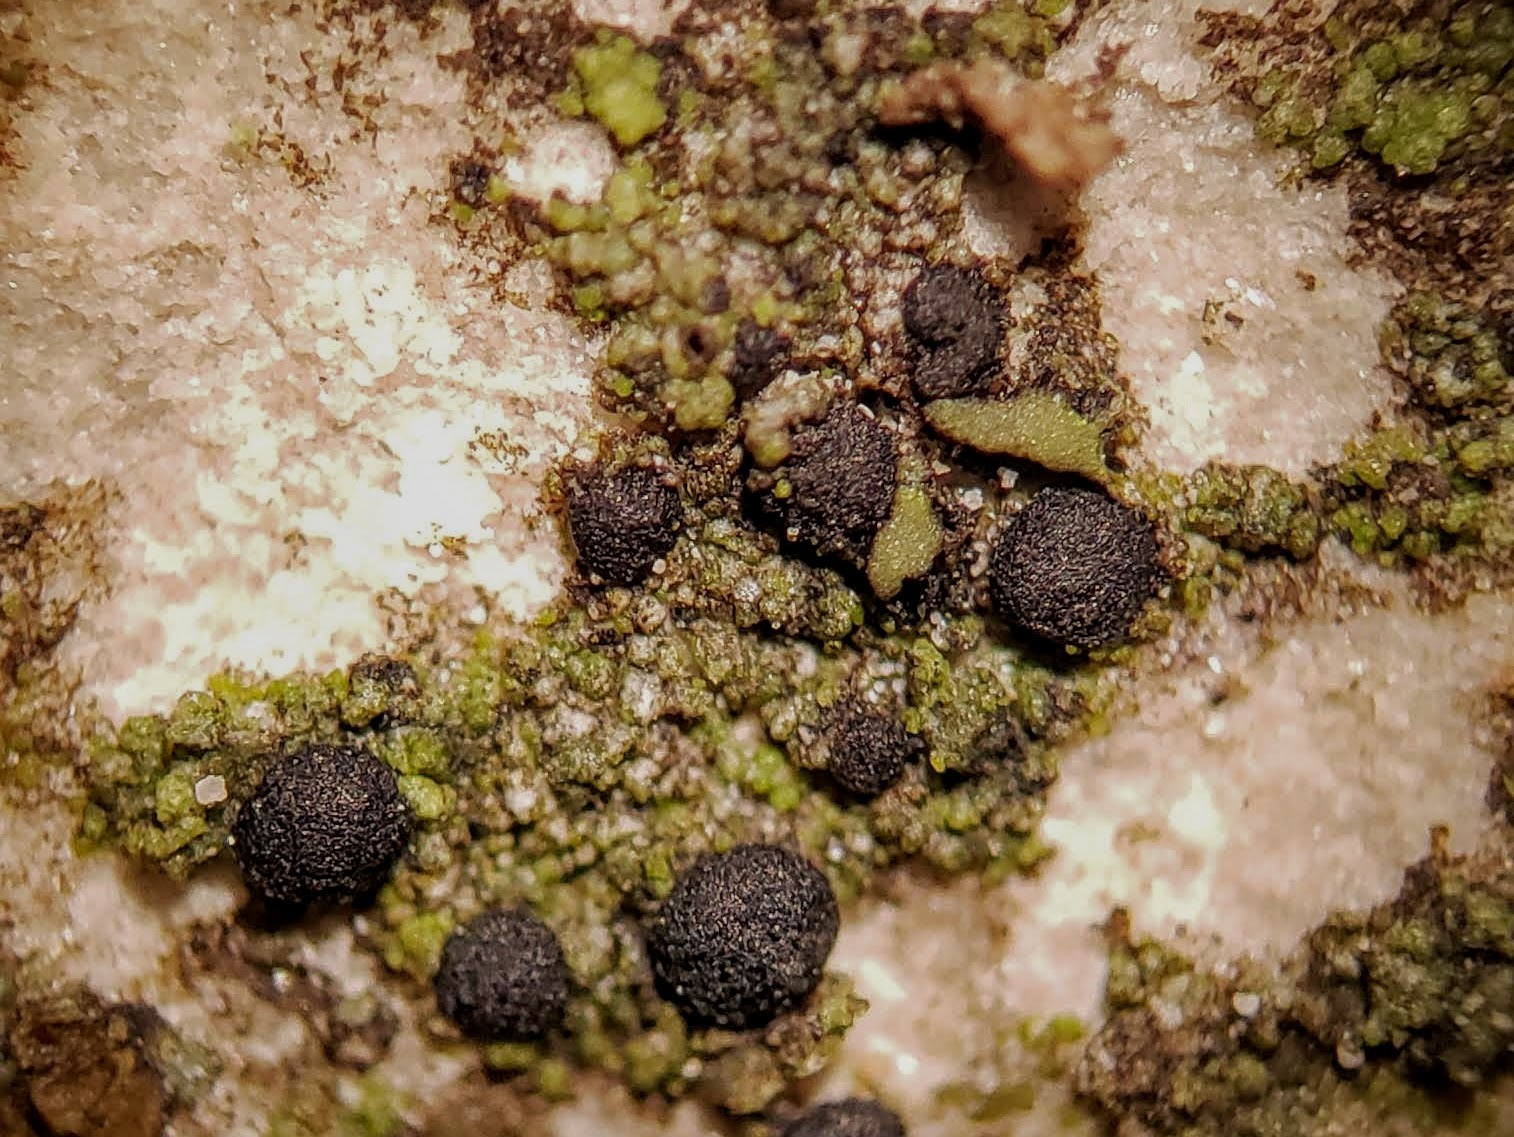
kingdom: Fungi
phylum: Ascomycota
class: Lecanoromycetes
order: Lecanorales
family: Scoliciosporaceae
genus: Scoliciosporum
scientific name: Scoliciosporum umbrinum
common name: Umber dot lichen
